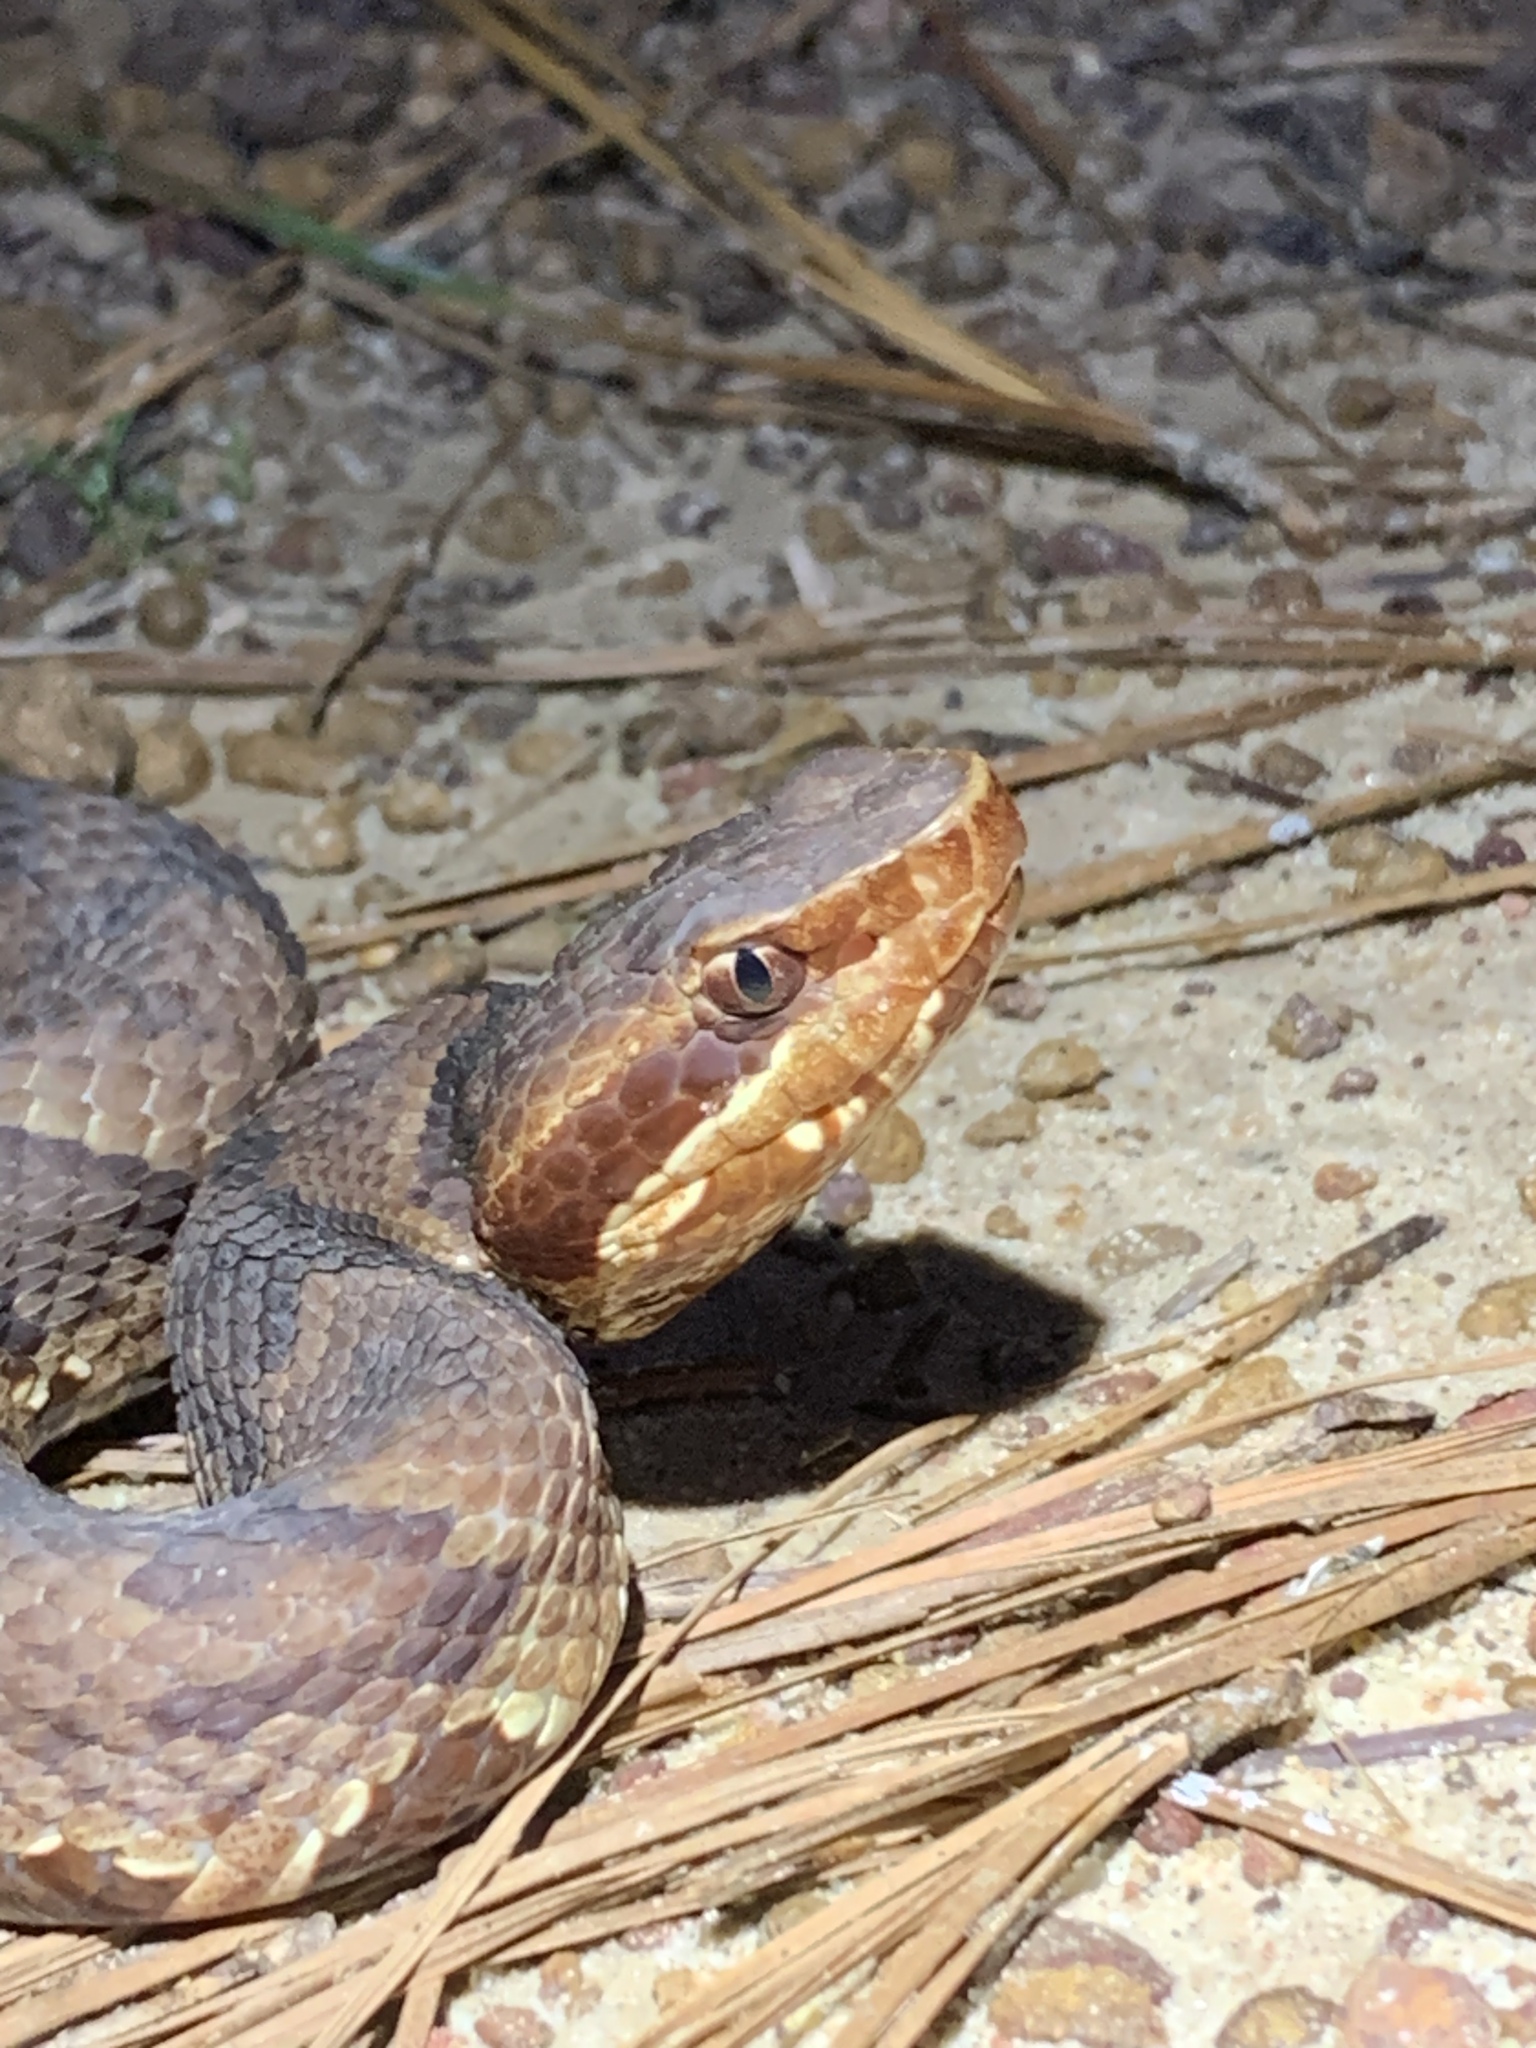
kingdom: Animalia
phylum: Chordata
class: Squamata
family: Viperidae
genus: Agkistrodon
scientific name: Agkistrodon piscivorus
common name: Cottonmouth
